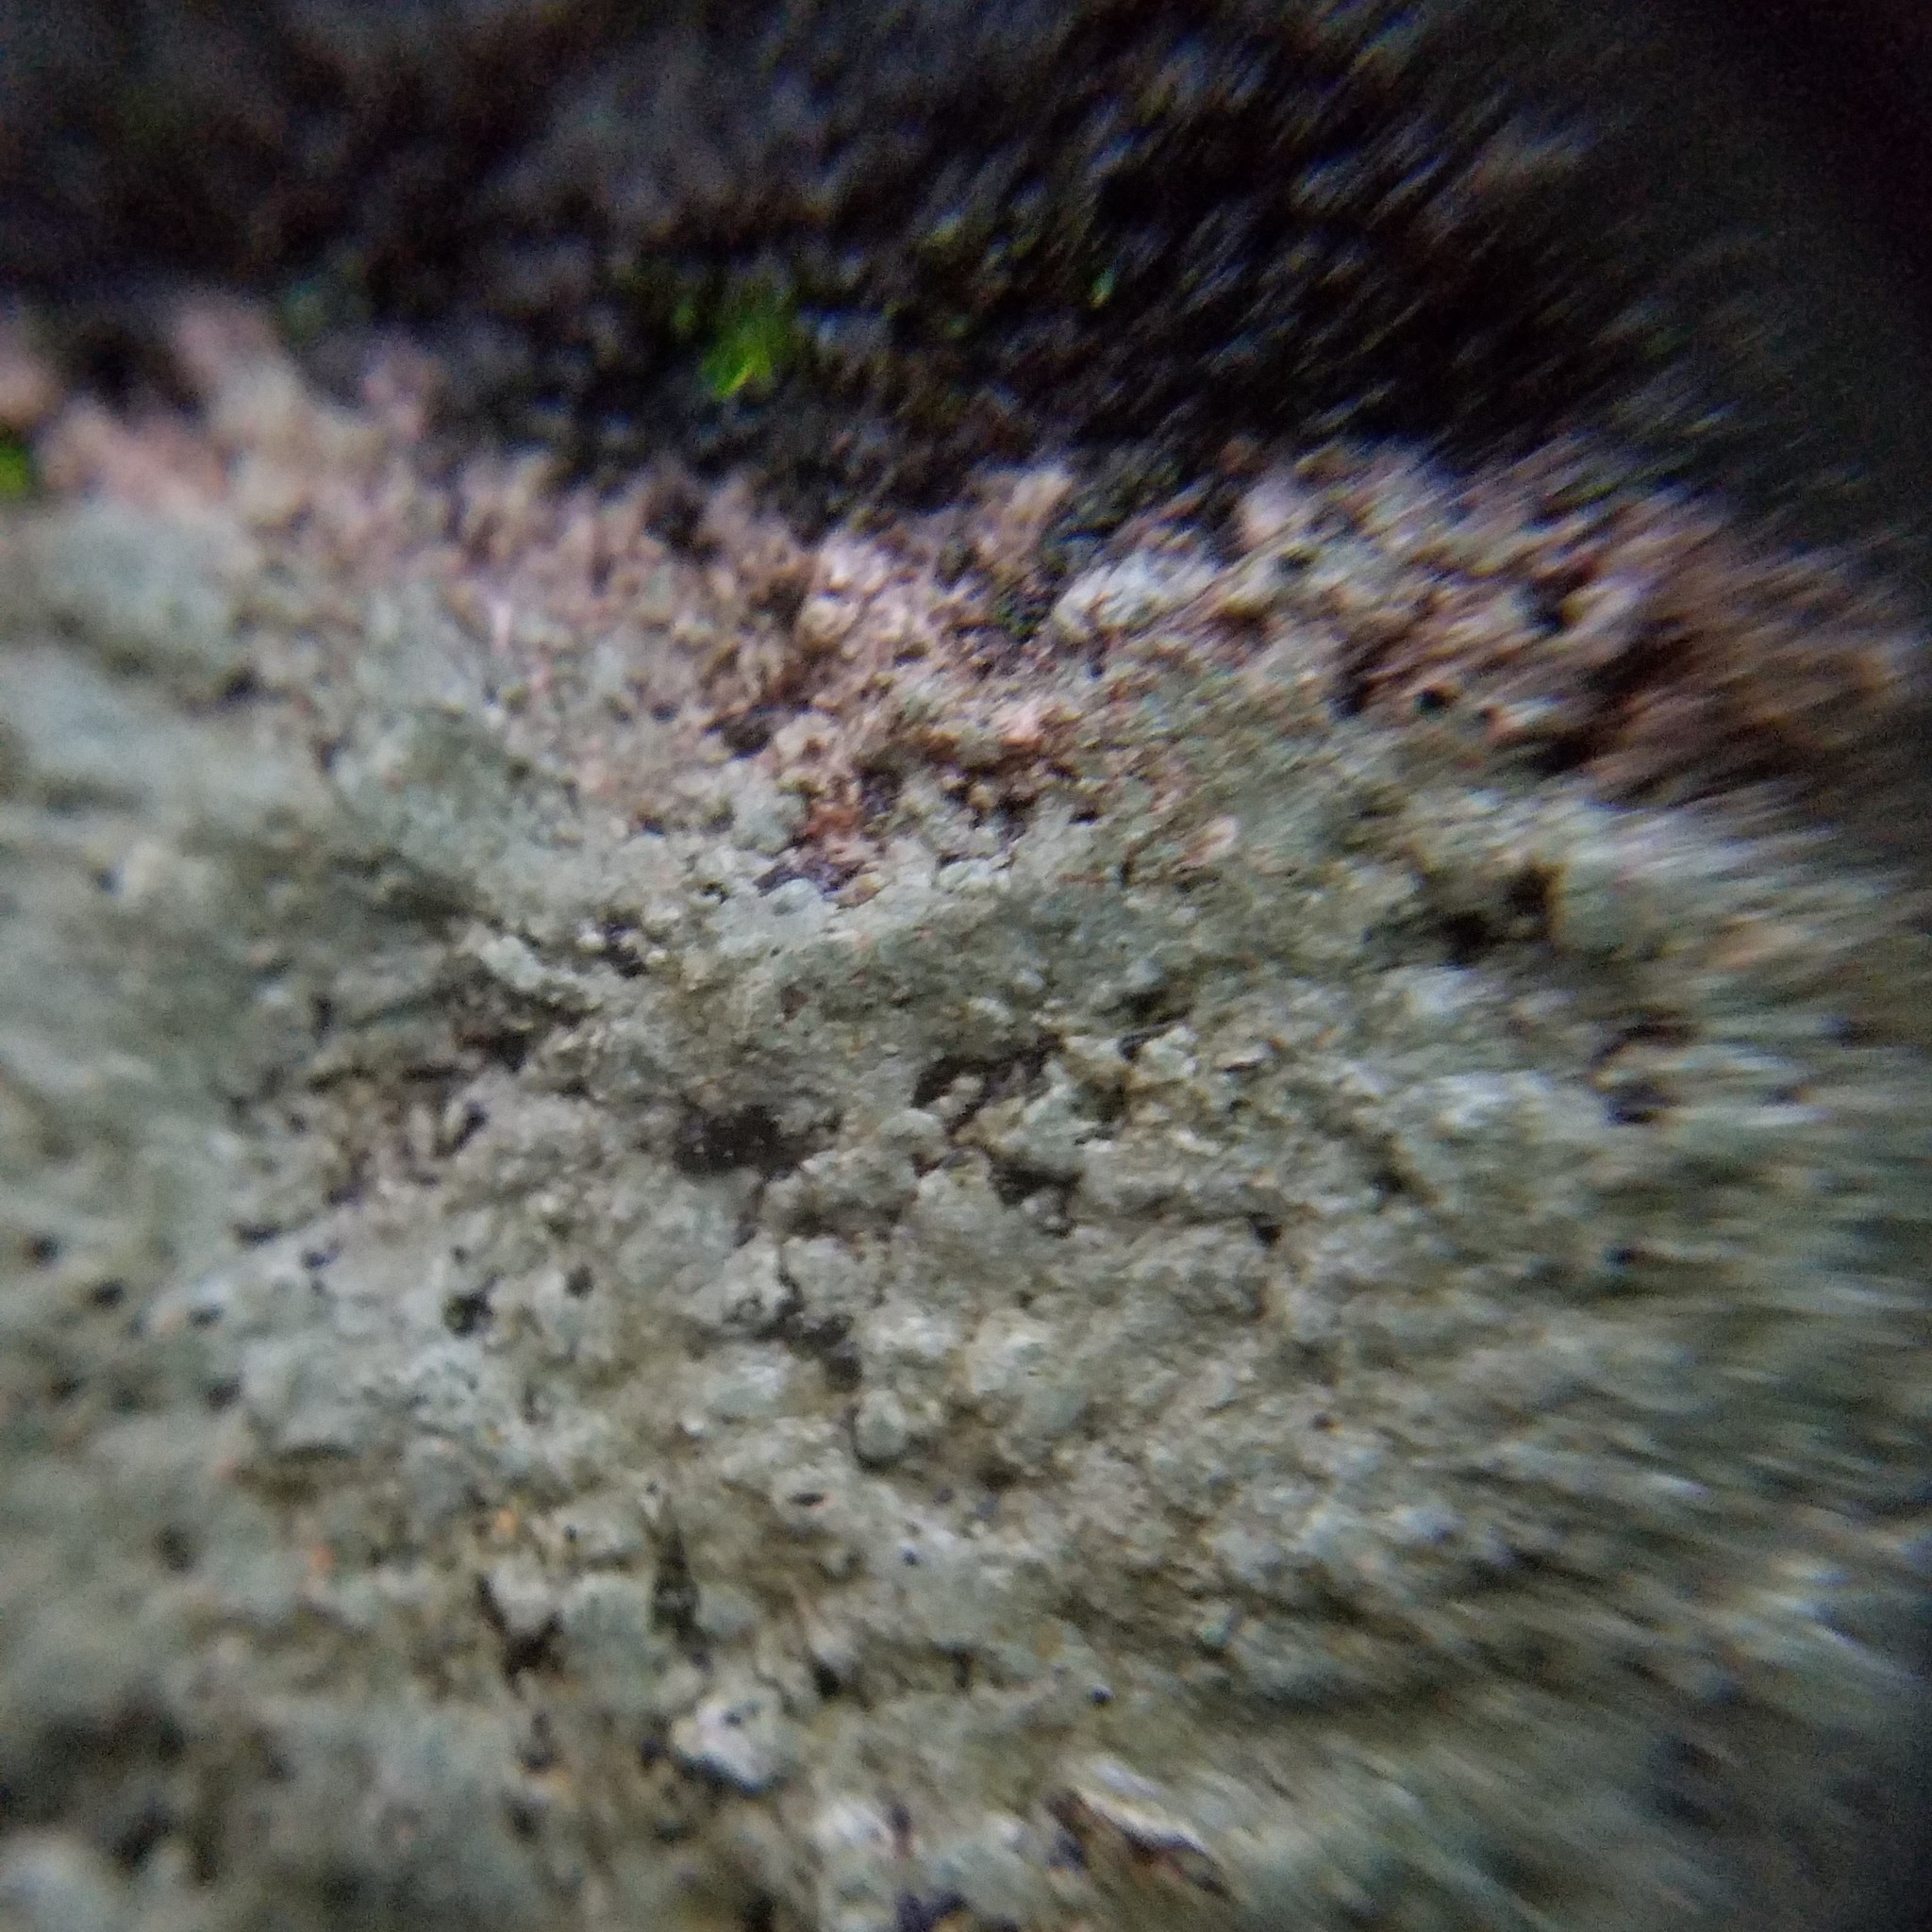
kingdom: Fungi
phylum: Ascomycota
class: Lecanoromycetes
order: Lecideales
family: Lecideaceae
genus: Porpidia
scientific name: Porpidia albocaerulescens
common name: Smokey-eyed boulder lichen
